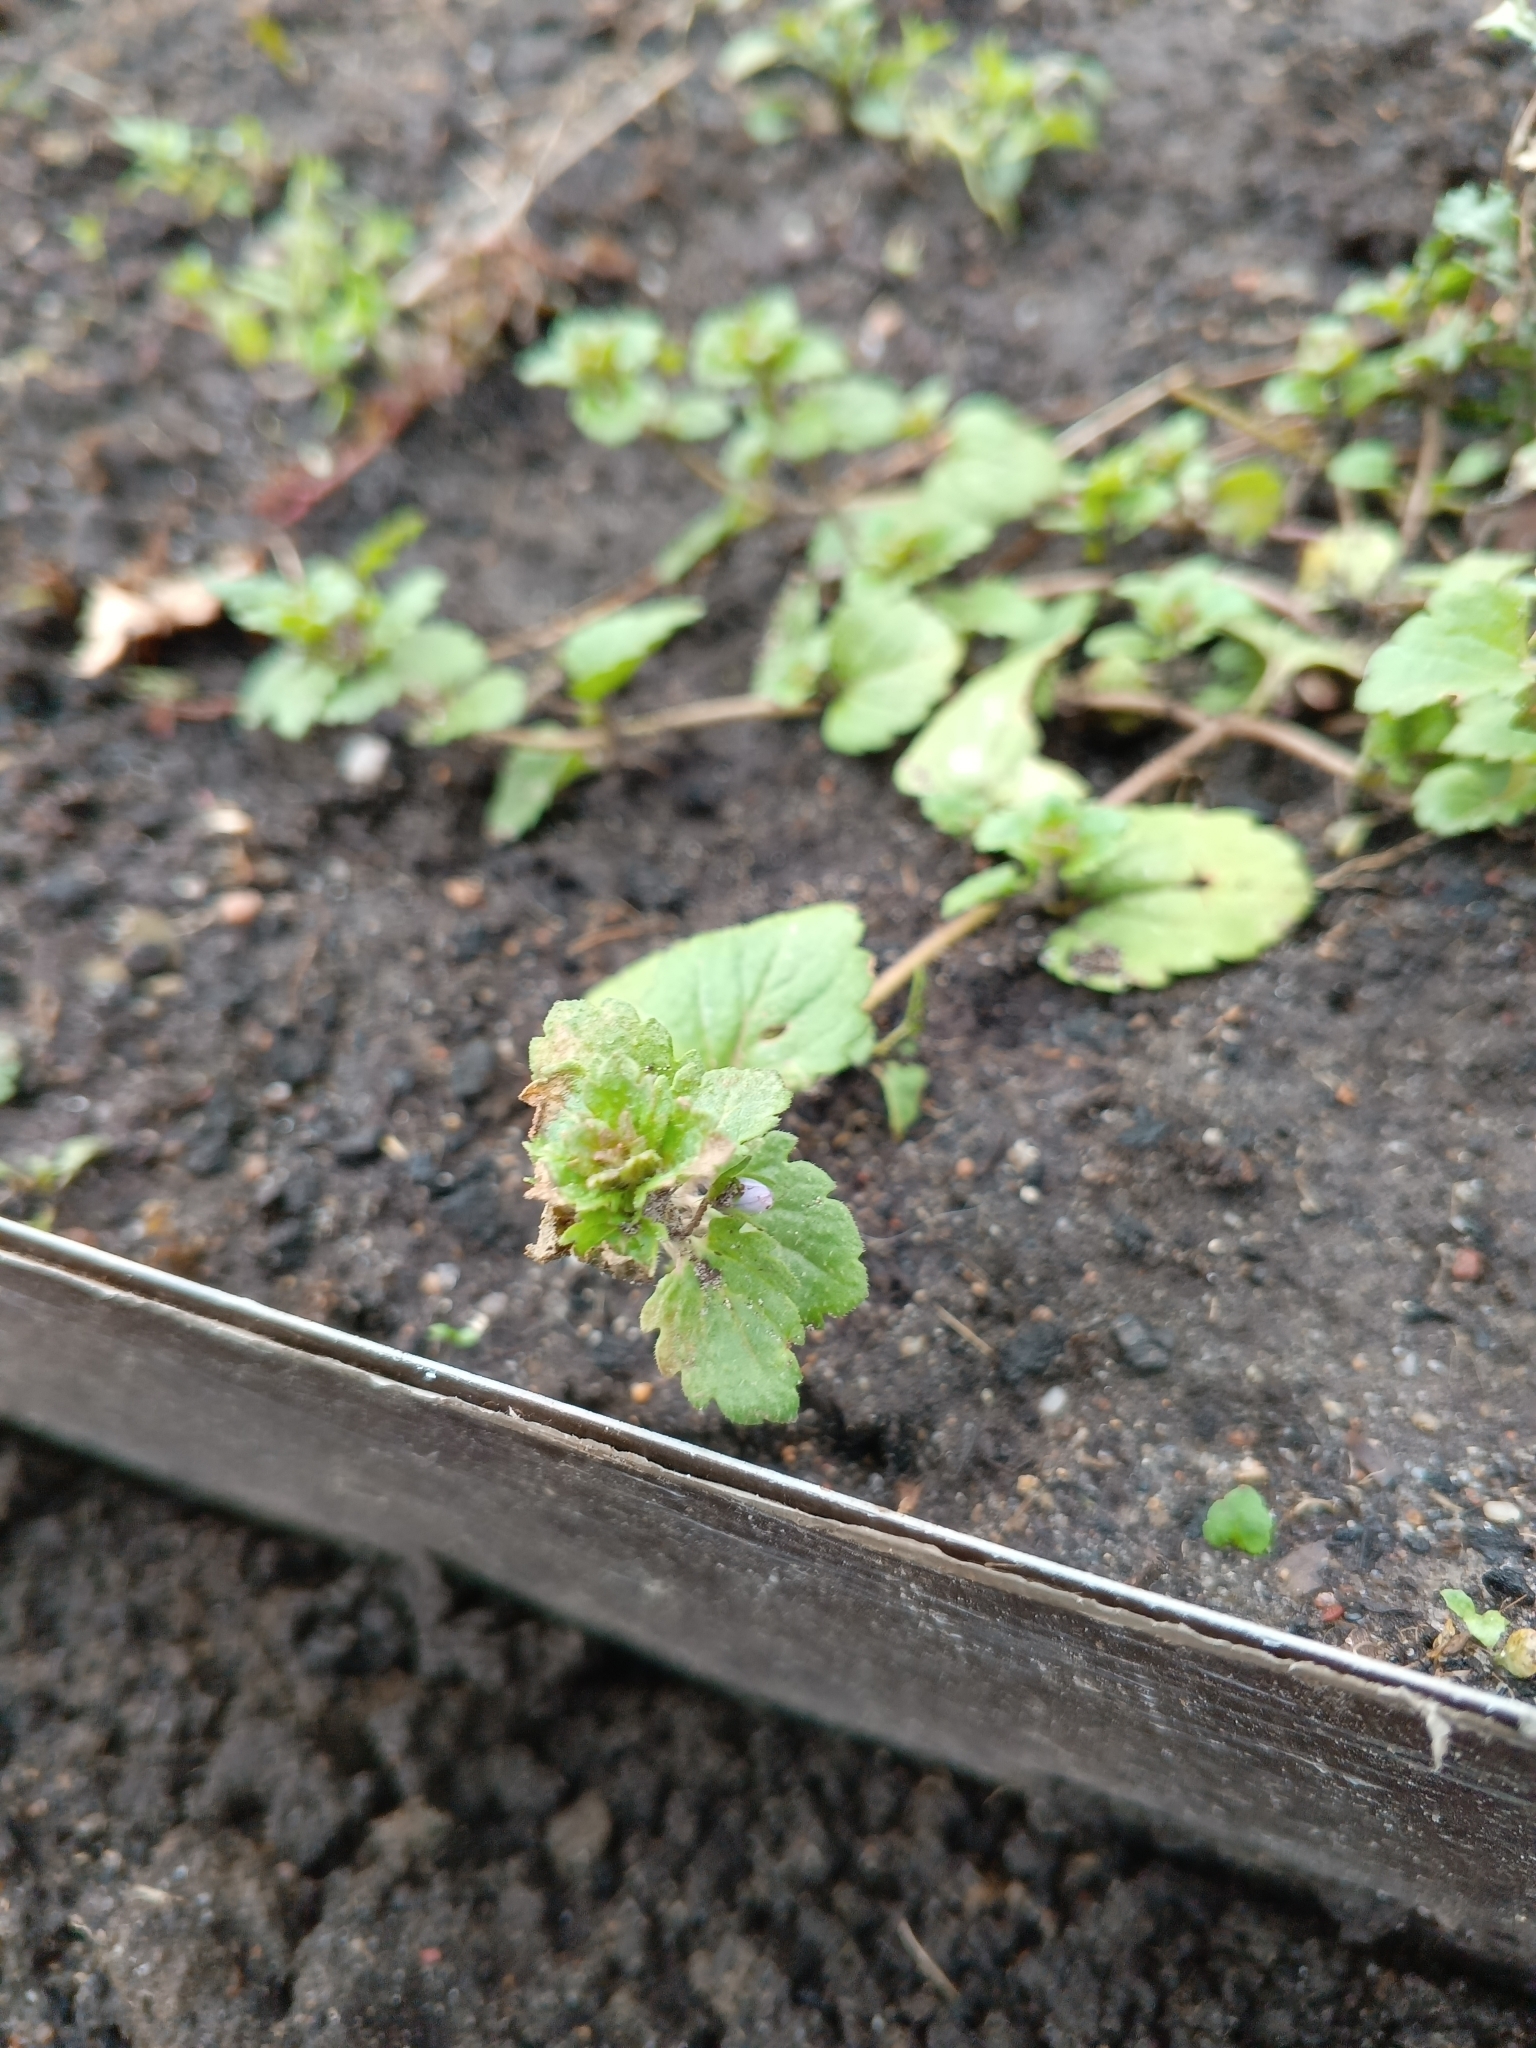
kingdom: Plantae
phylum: Tracheophyta
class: Magnoliopsida
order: Lamiales
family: Plantaginaceae
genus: Veronica
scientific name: Veronica persica
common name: Common field-speedwell
